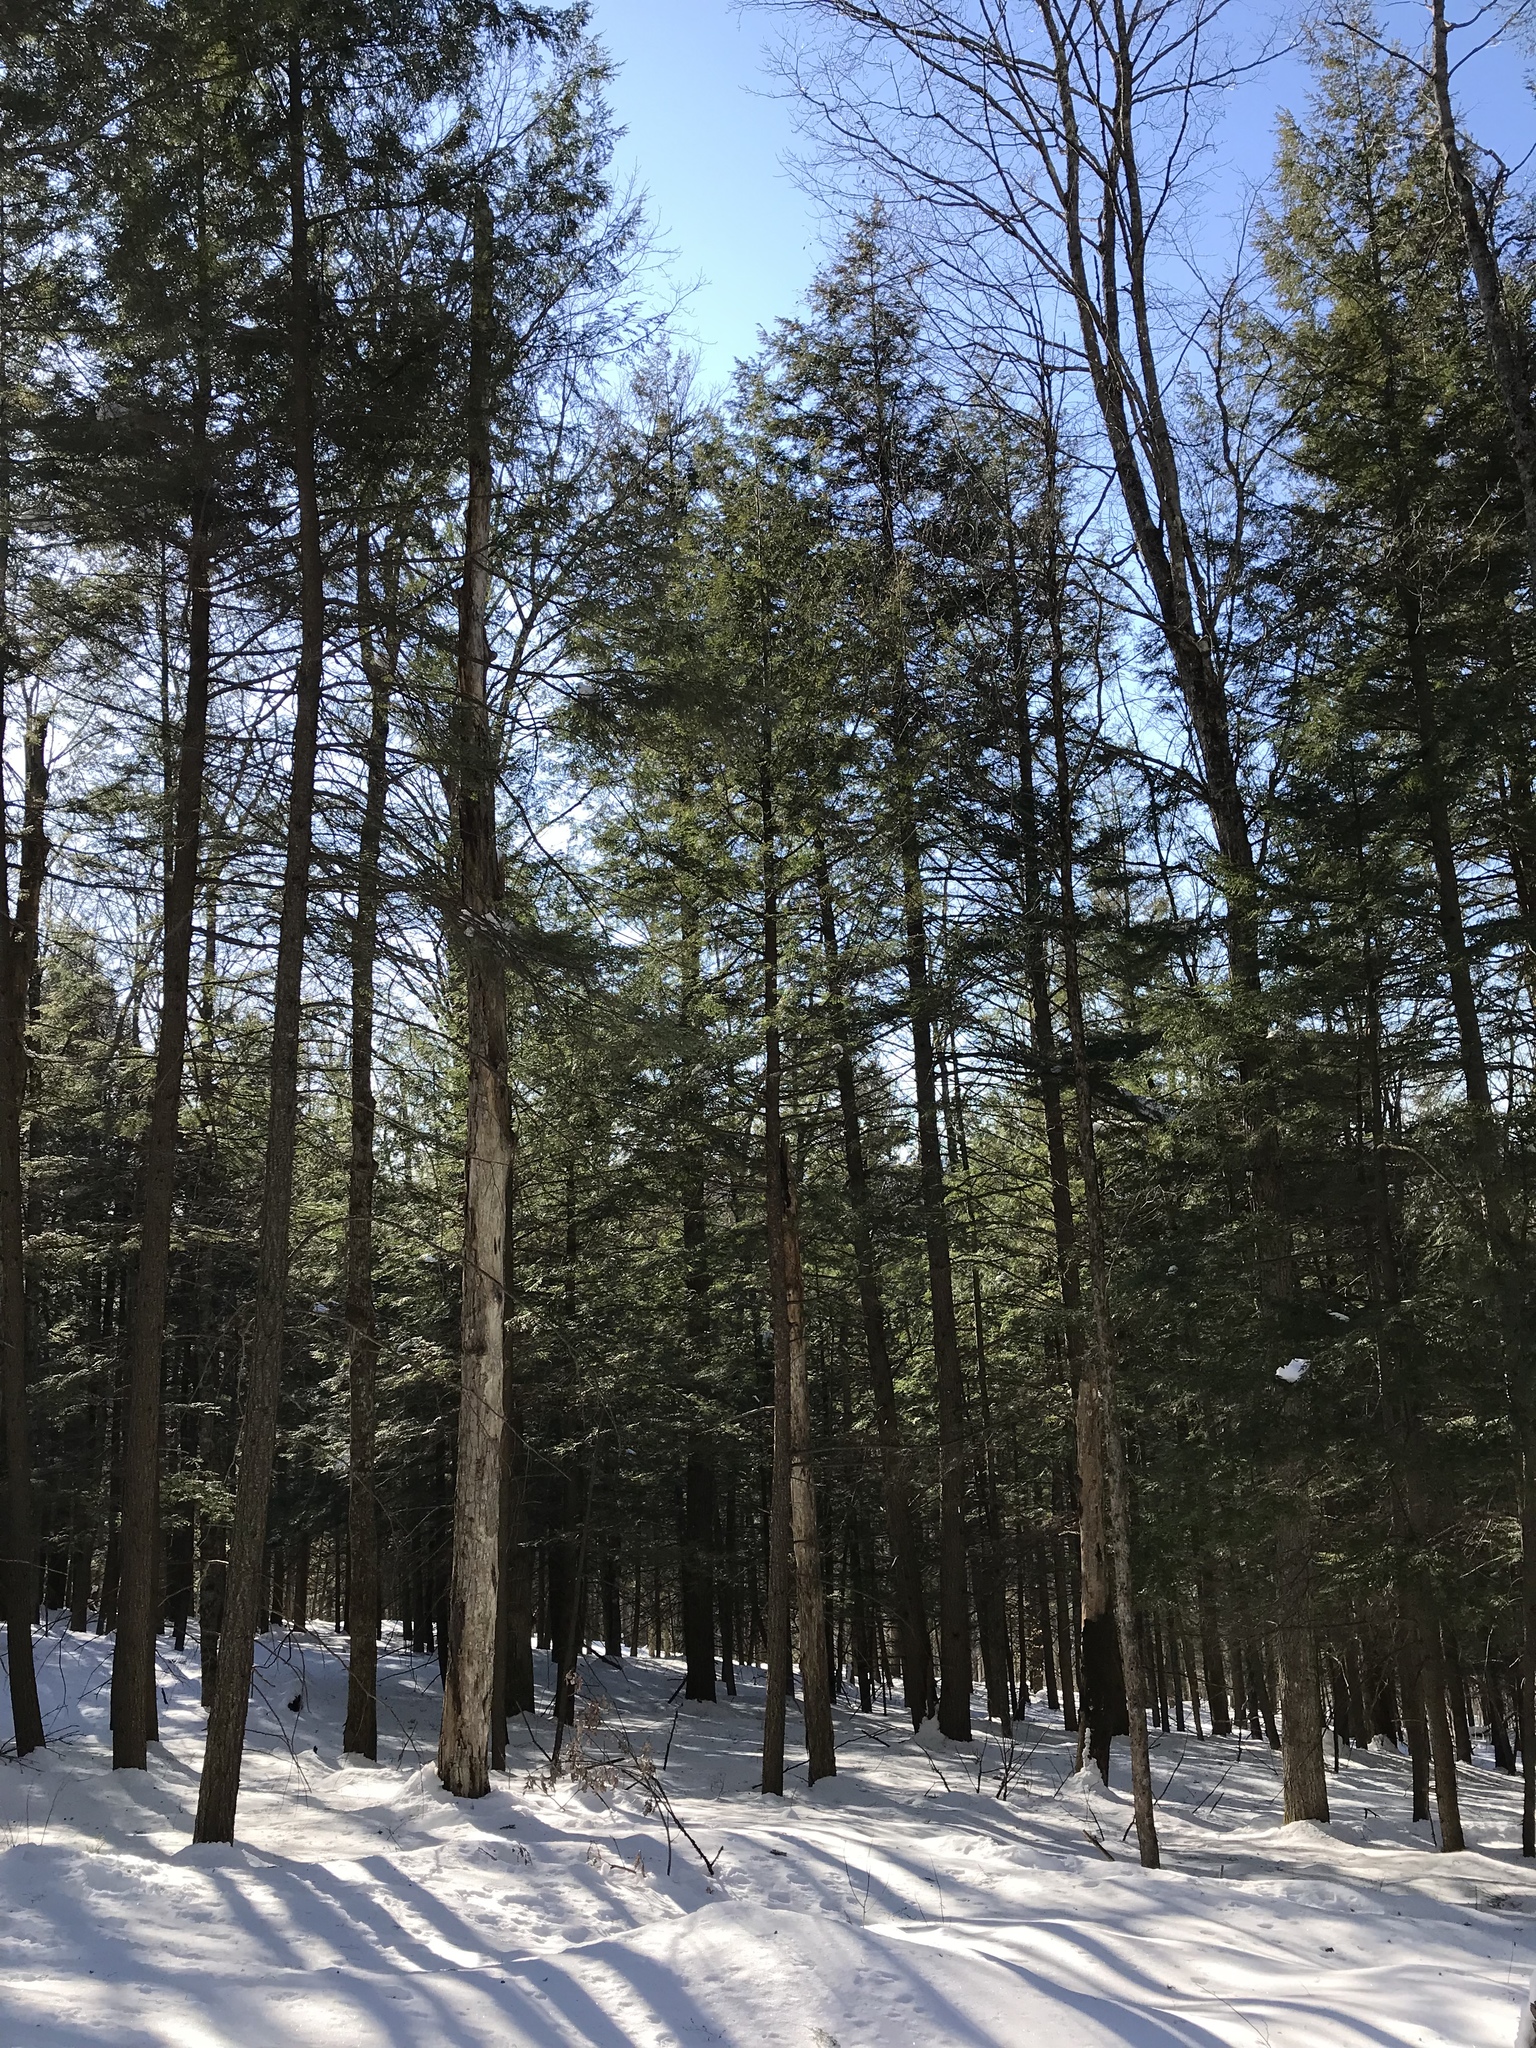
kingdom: Plantae
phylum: Tracheophyta
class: Pinopsida
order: Pinales
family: Pinaceae
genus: Tsuga
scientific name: Tsuga canadensis
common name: Eastern hemlock
